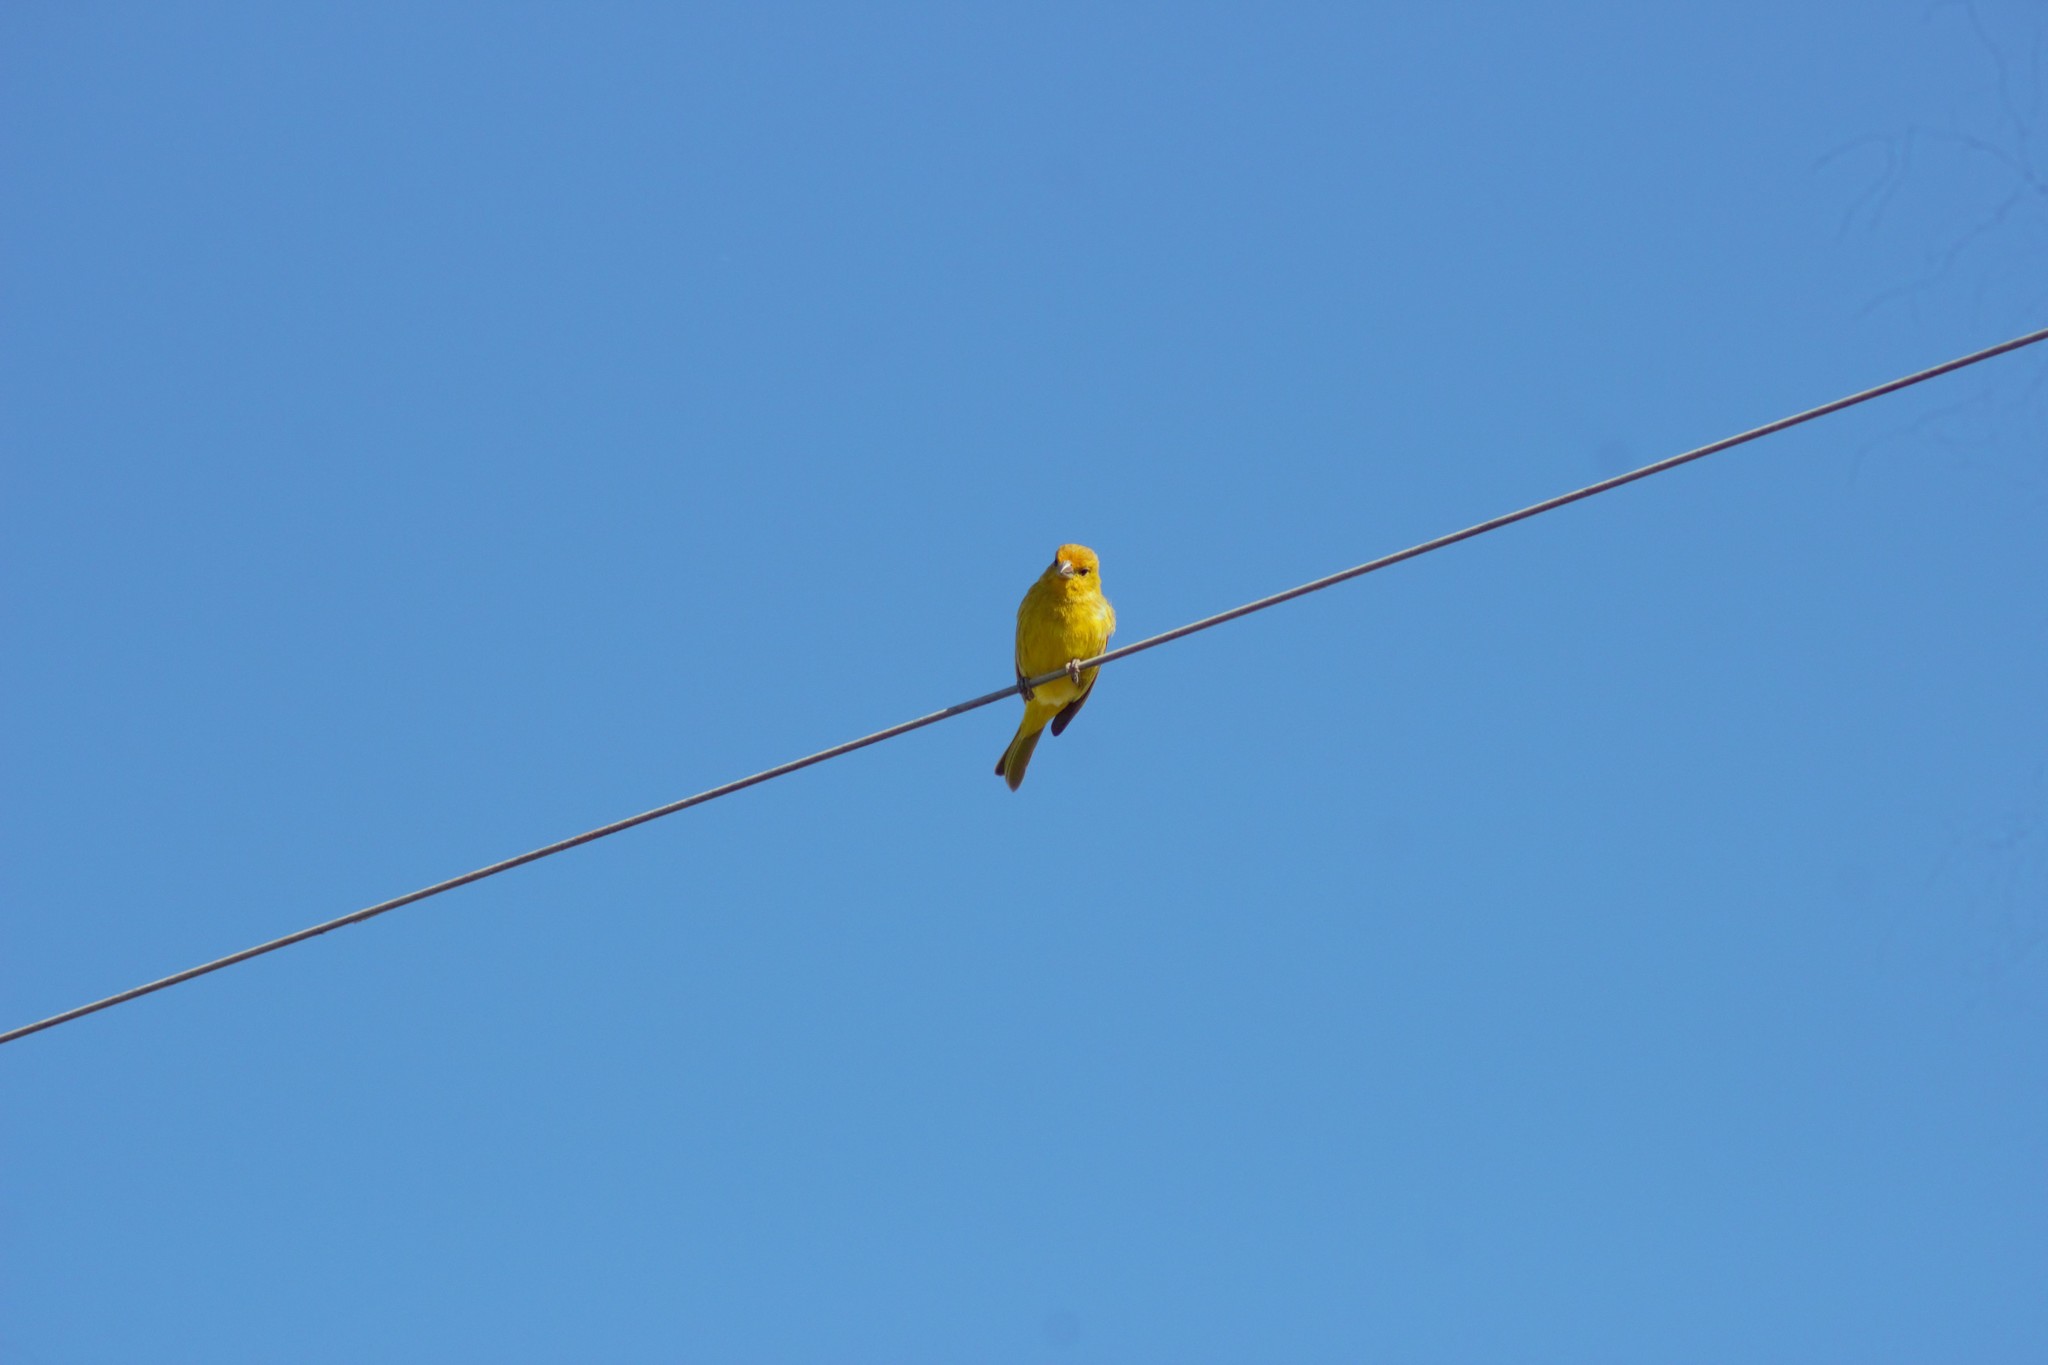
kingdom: Animalia
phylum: Chordata
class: Aves
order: Passeriformes
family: Thraupidae
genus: Sicalis
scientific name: Sicalis flaveola
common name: Saffron finch
